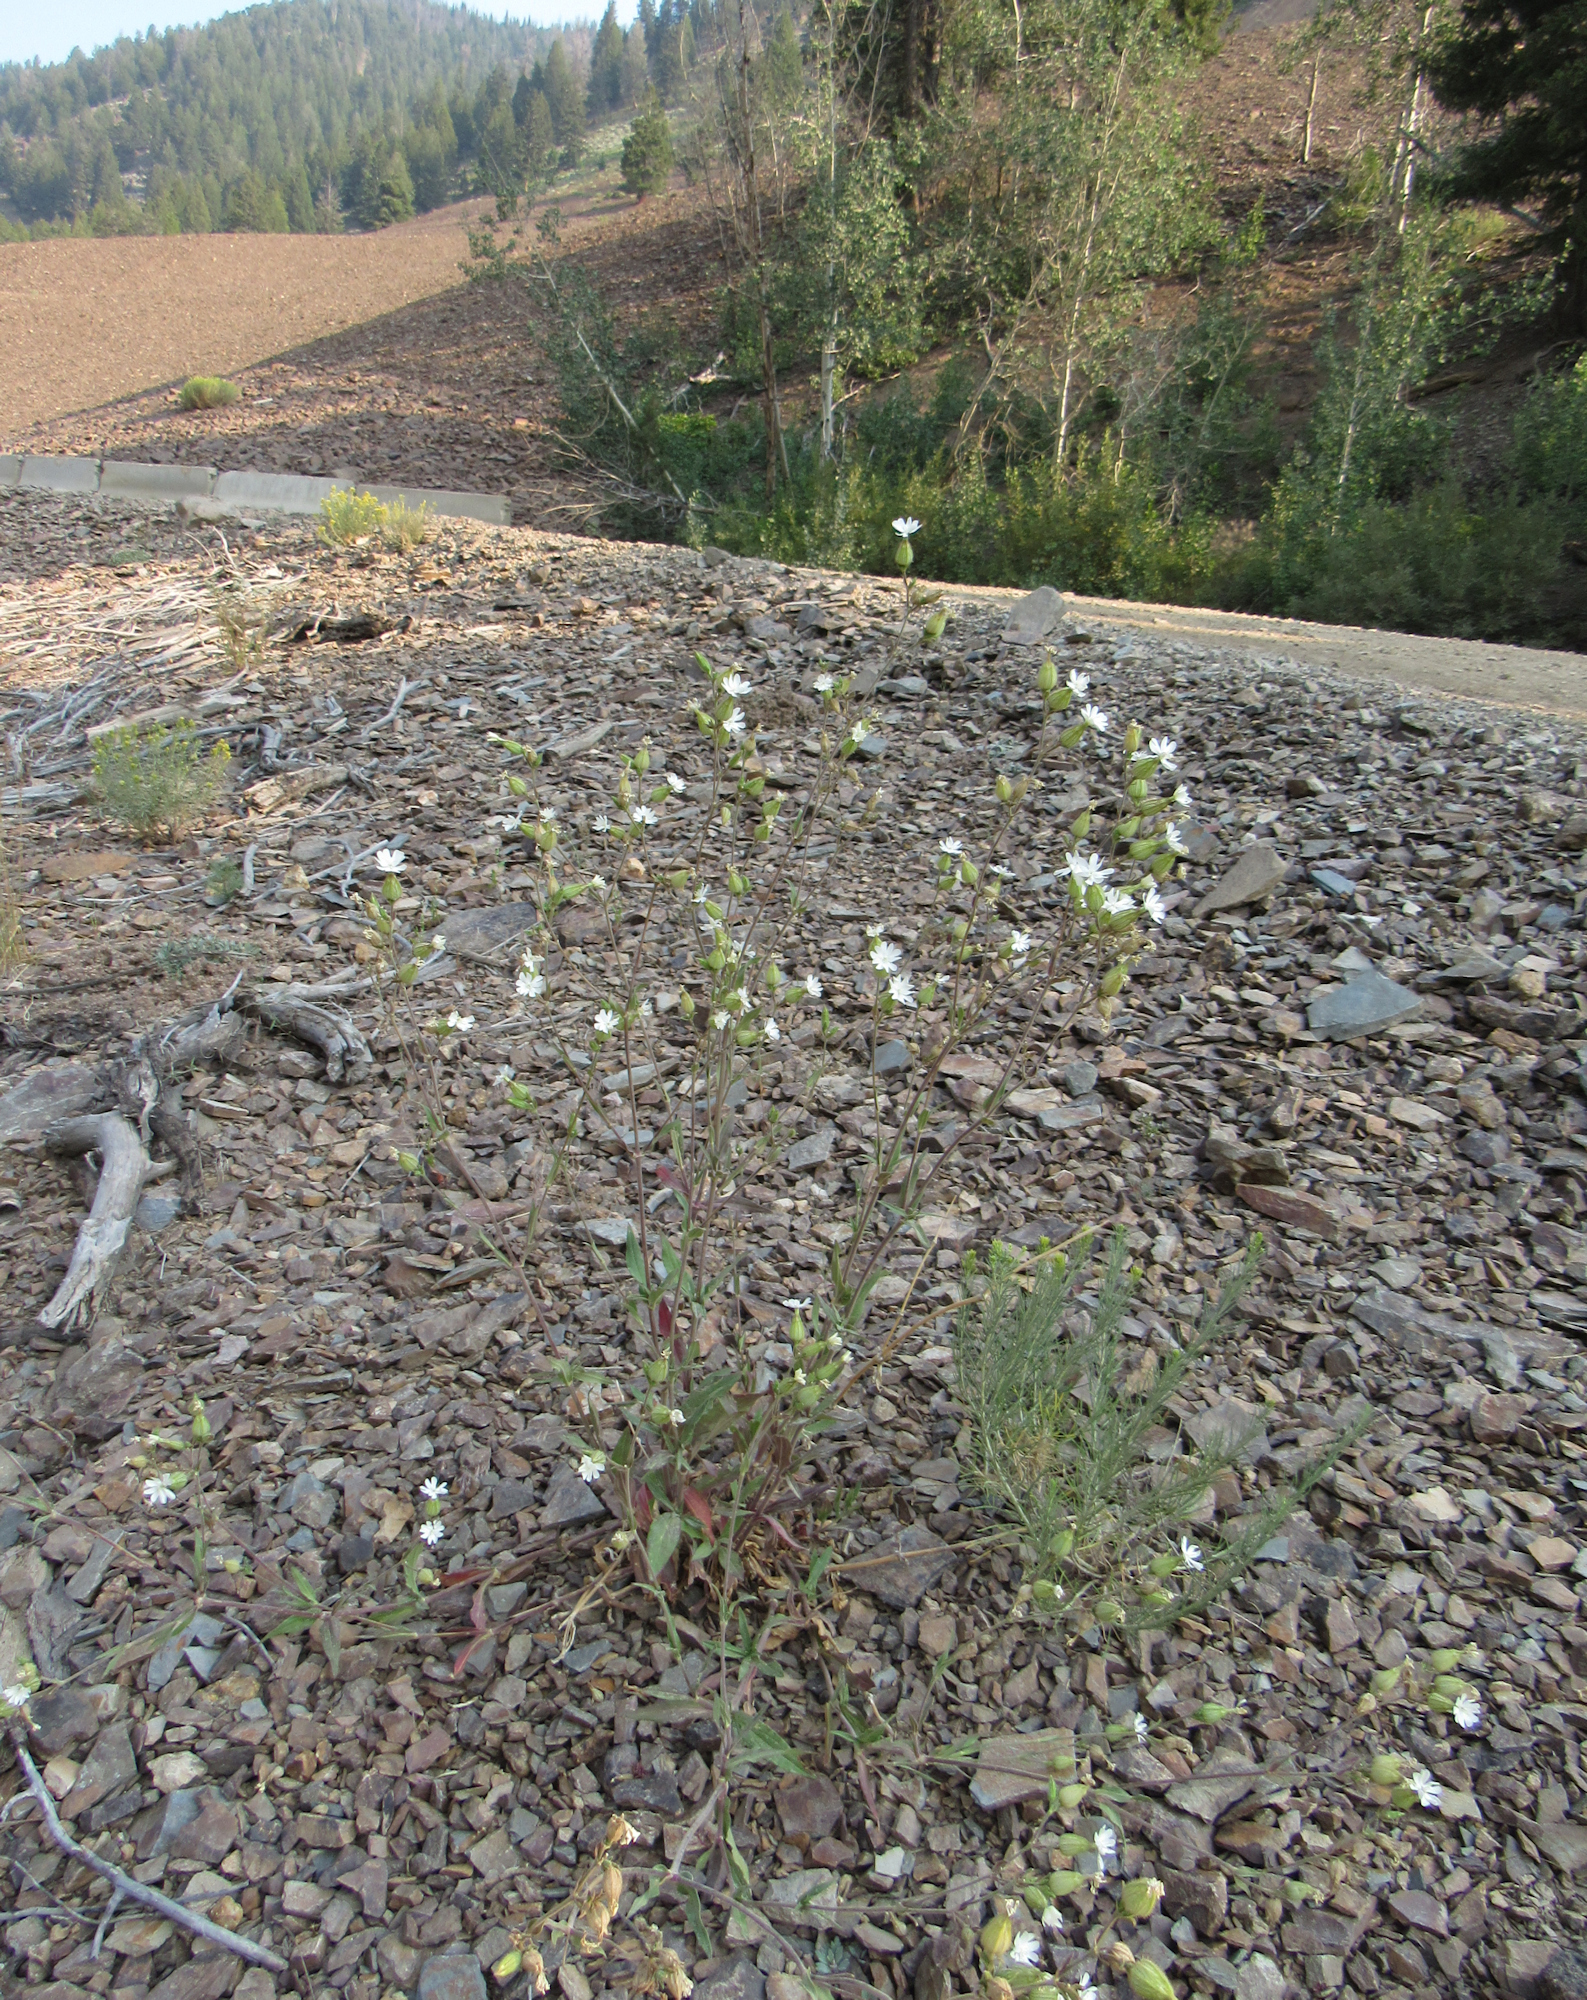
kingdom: Plantae
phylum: Tracheophyta
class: Magnoliopsida
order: Caryophyllales
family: Caryophyllaceae
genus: Silene
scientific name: Silene latifolia
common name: White campion
